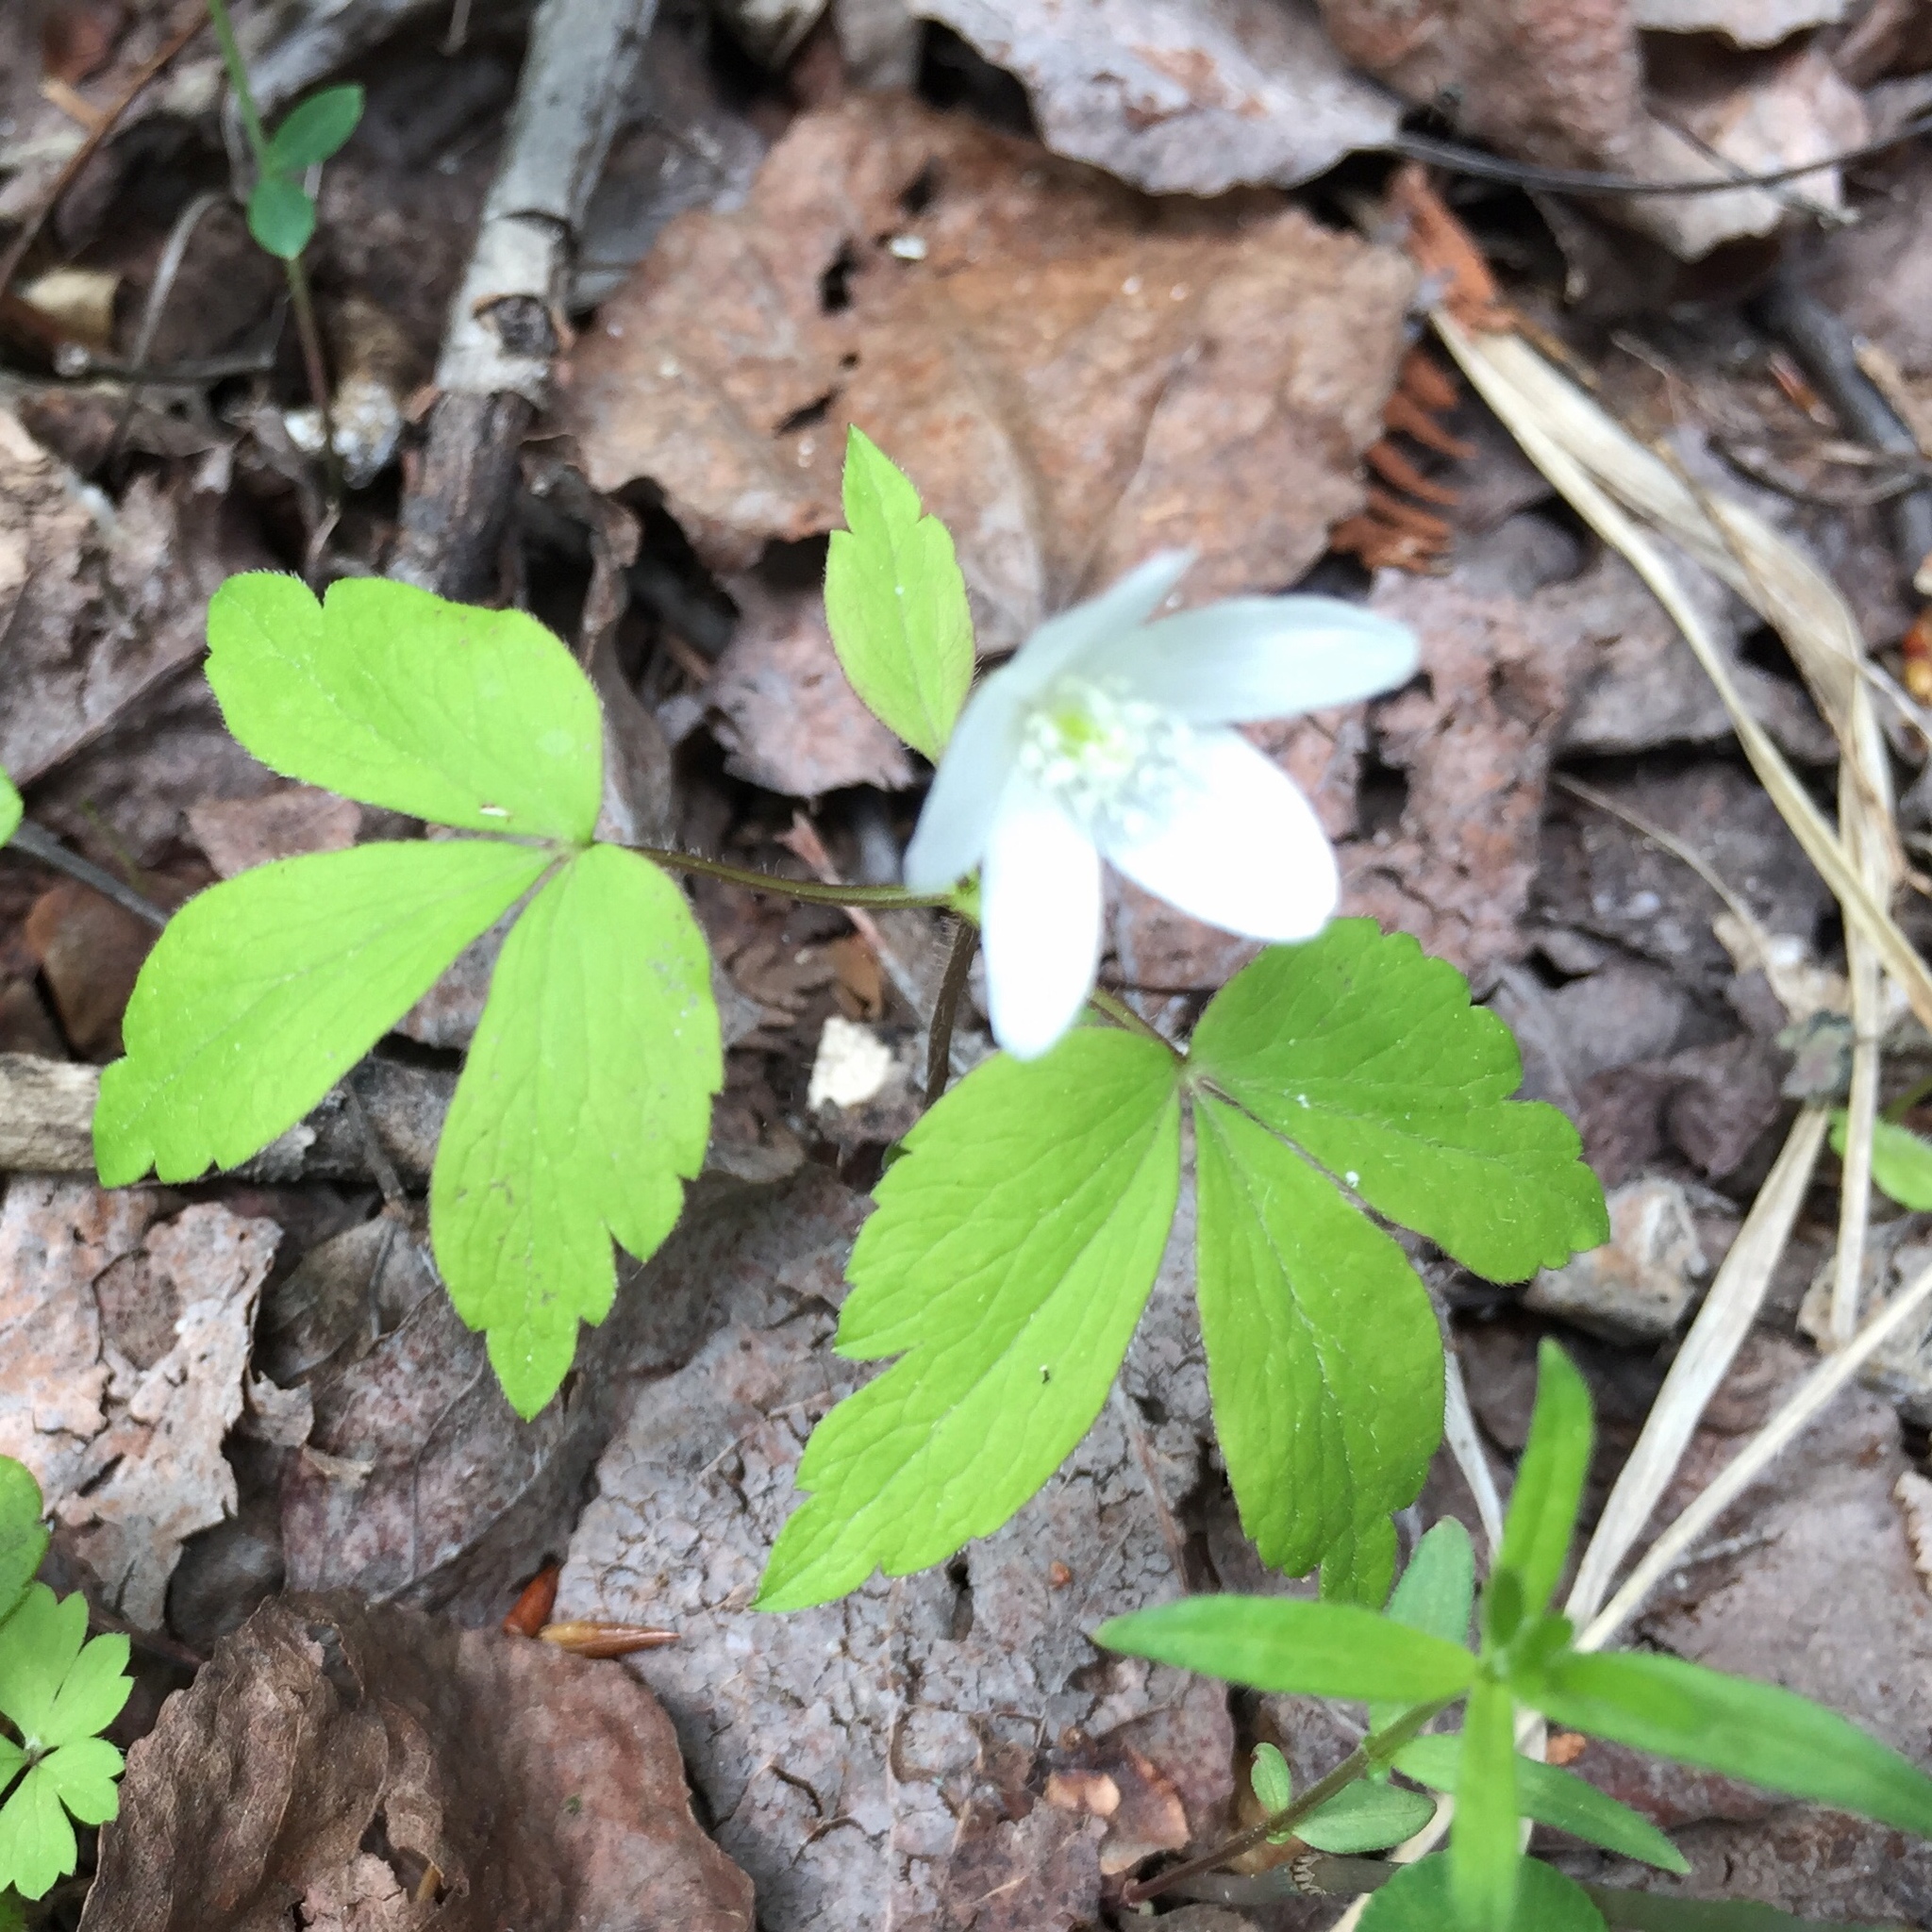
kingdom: Plantae
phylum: Tracheophyta
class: Magnoliopsida
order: Ranunculales
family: Ranunculaceae
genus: Anemone
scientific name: Anemone quinquefolia
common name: Wood anemone
